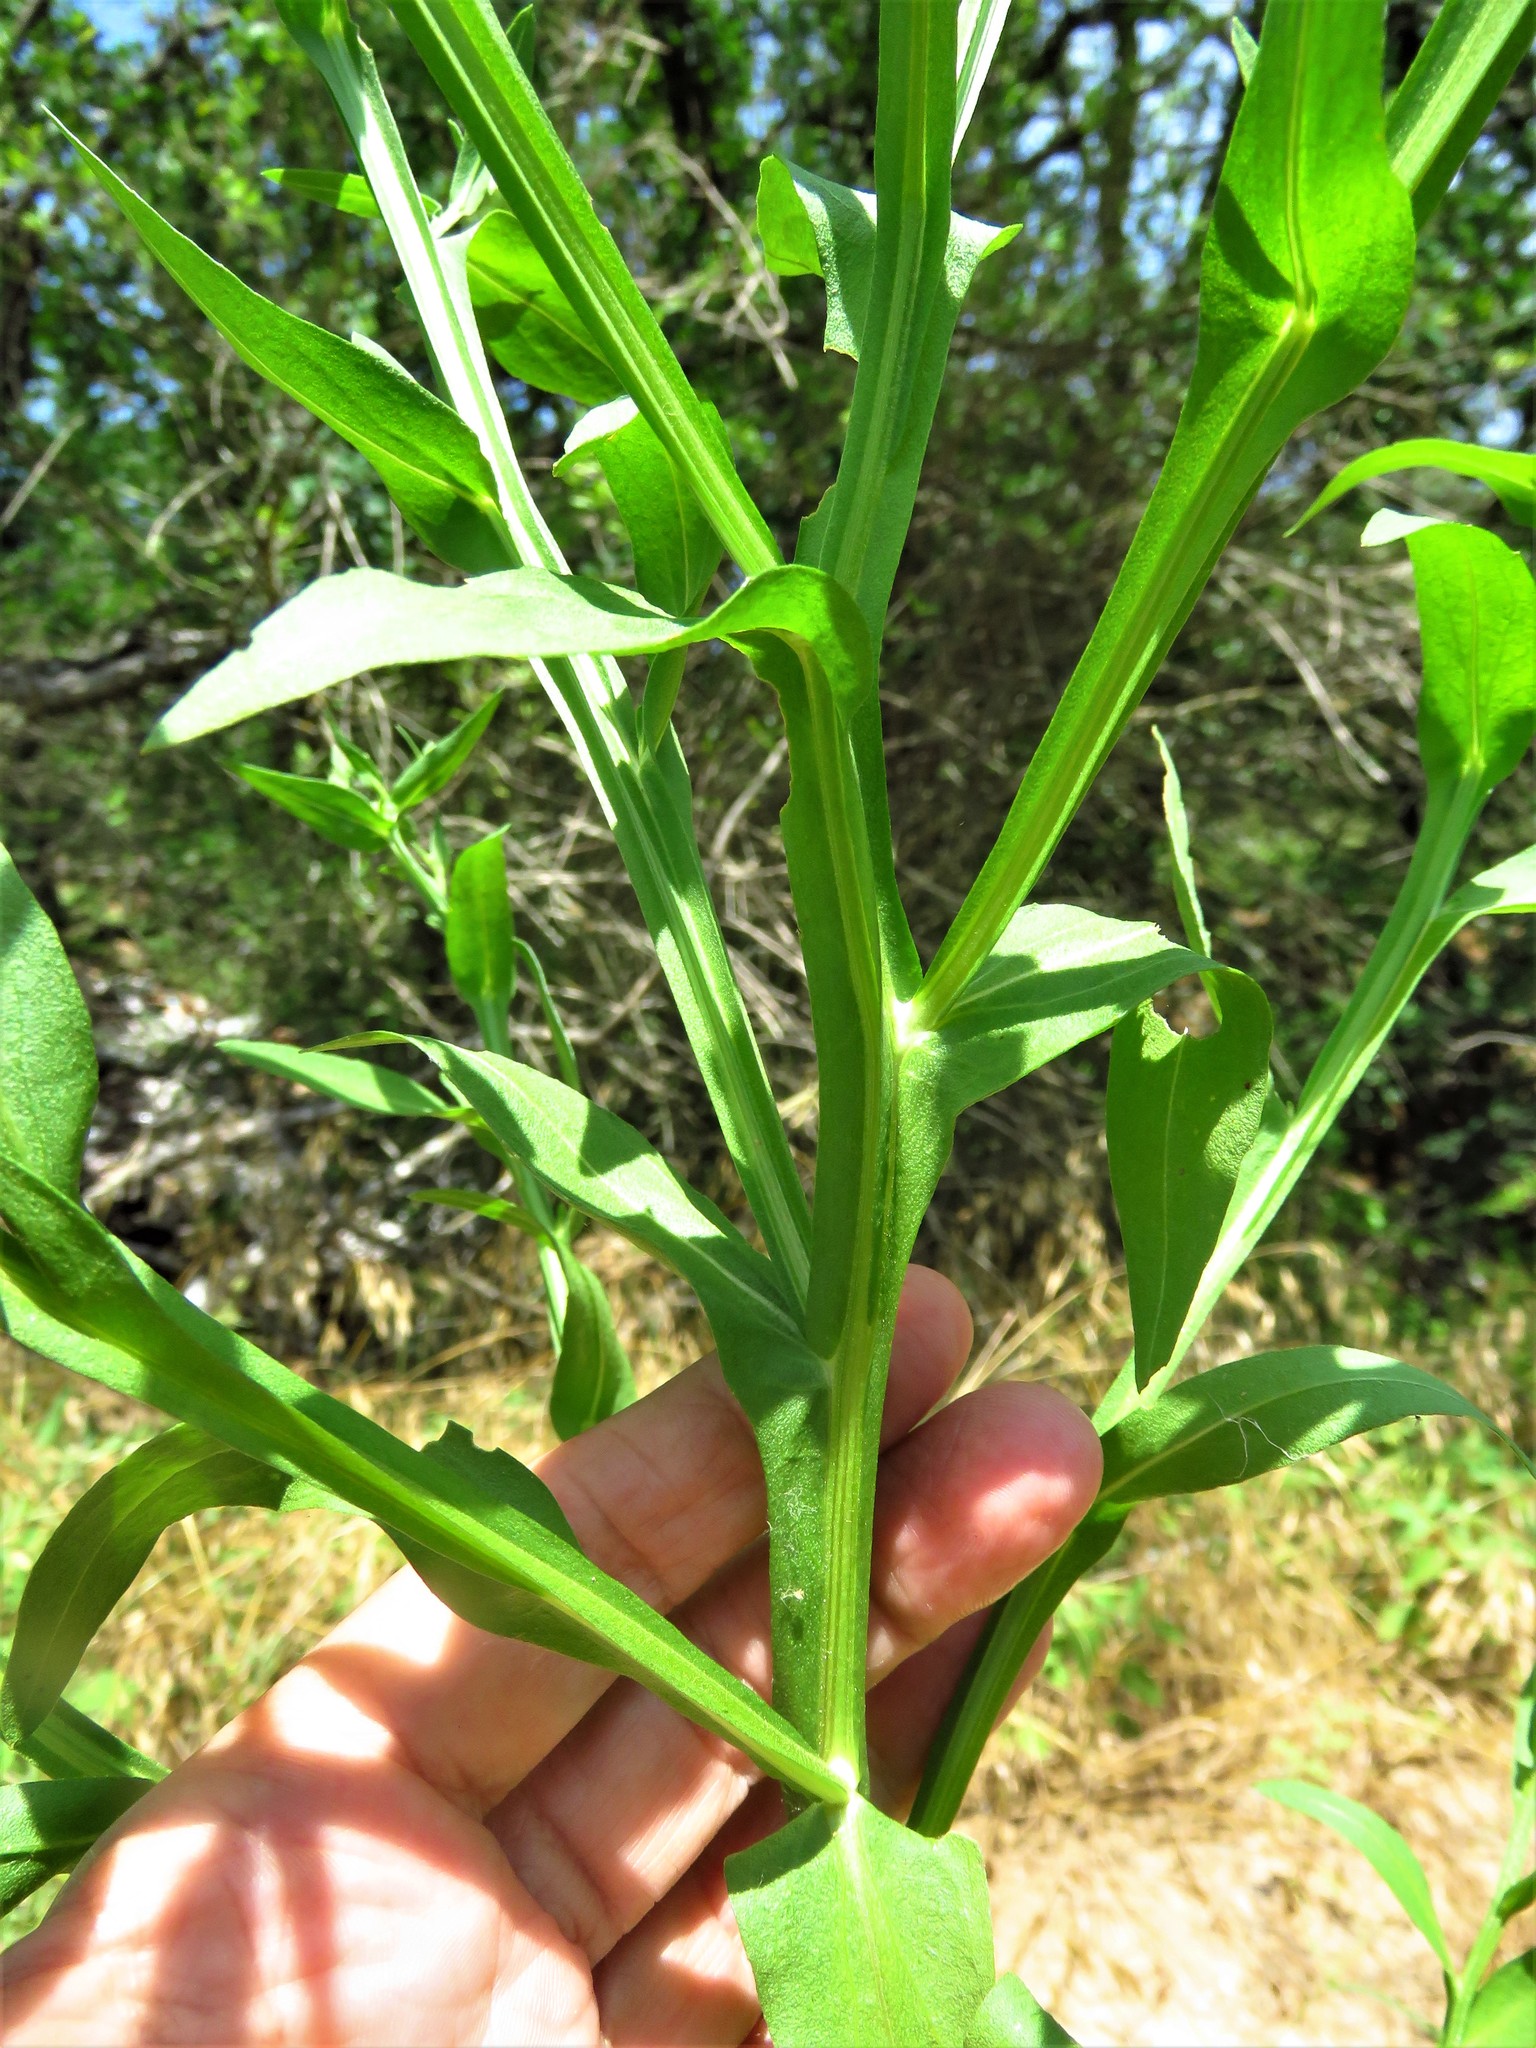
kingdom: Plantae
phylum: Tracheophyta
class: Magnoliopsida
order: Asterales
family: Asteraceae
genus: Helenium
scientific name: Helenium microcephalum
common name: Smallhead sneezeweed
